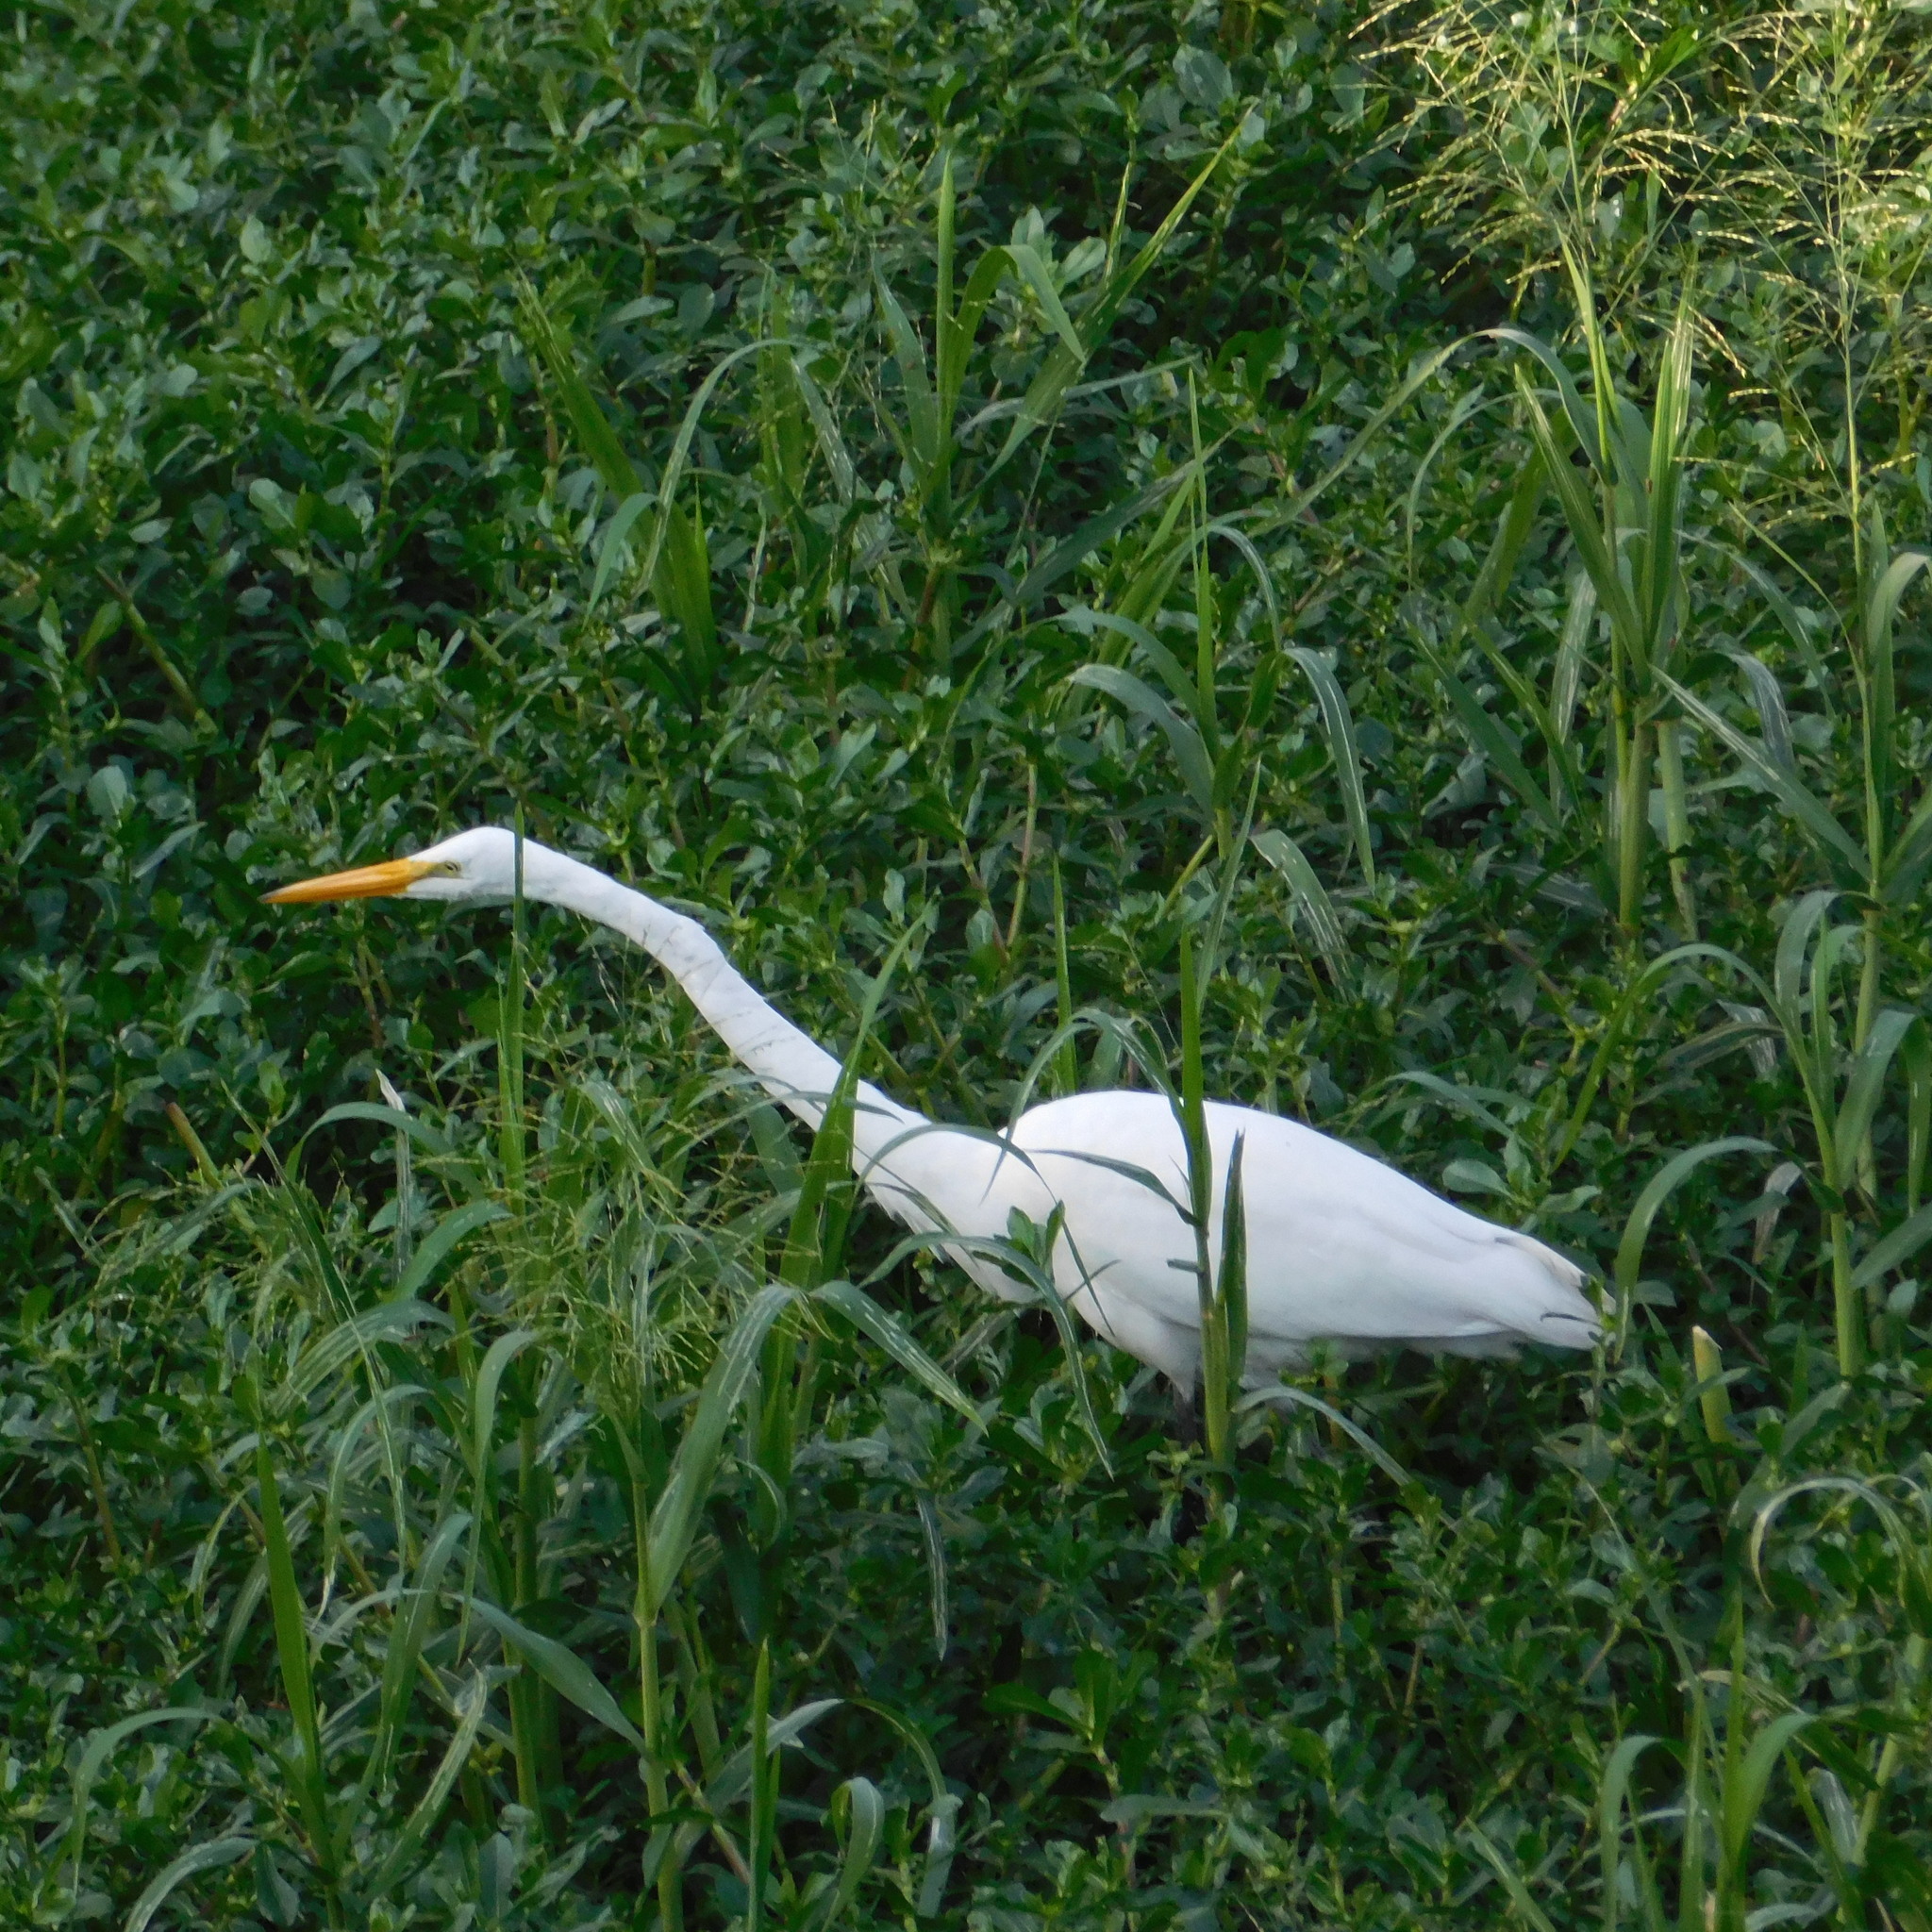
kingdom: Animalia
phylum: Chordata
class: Aves
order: Pelecaniformes
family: Ardeidae
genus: Ardea
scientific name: Ardea alba
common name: Great egret
